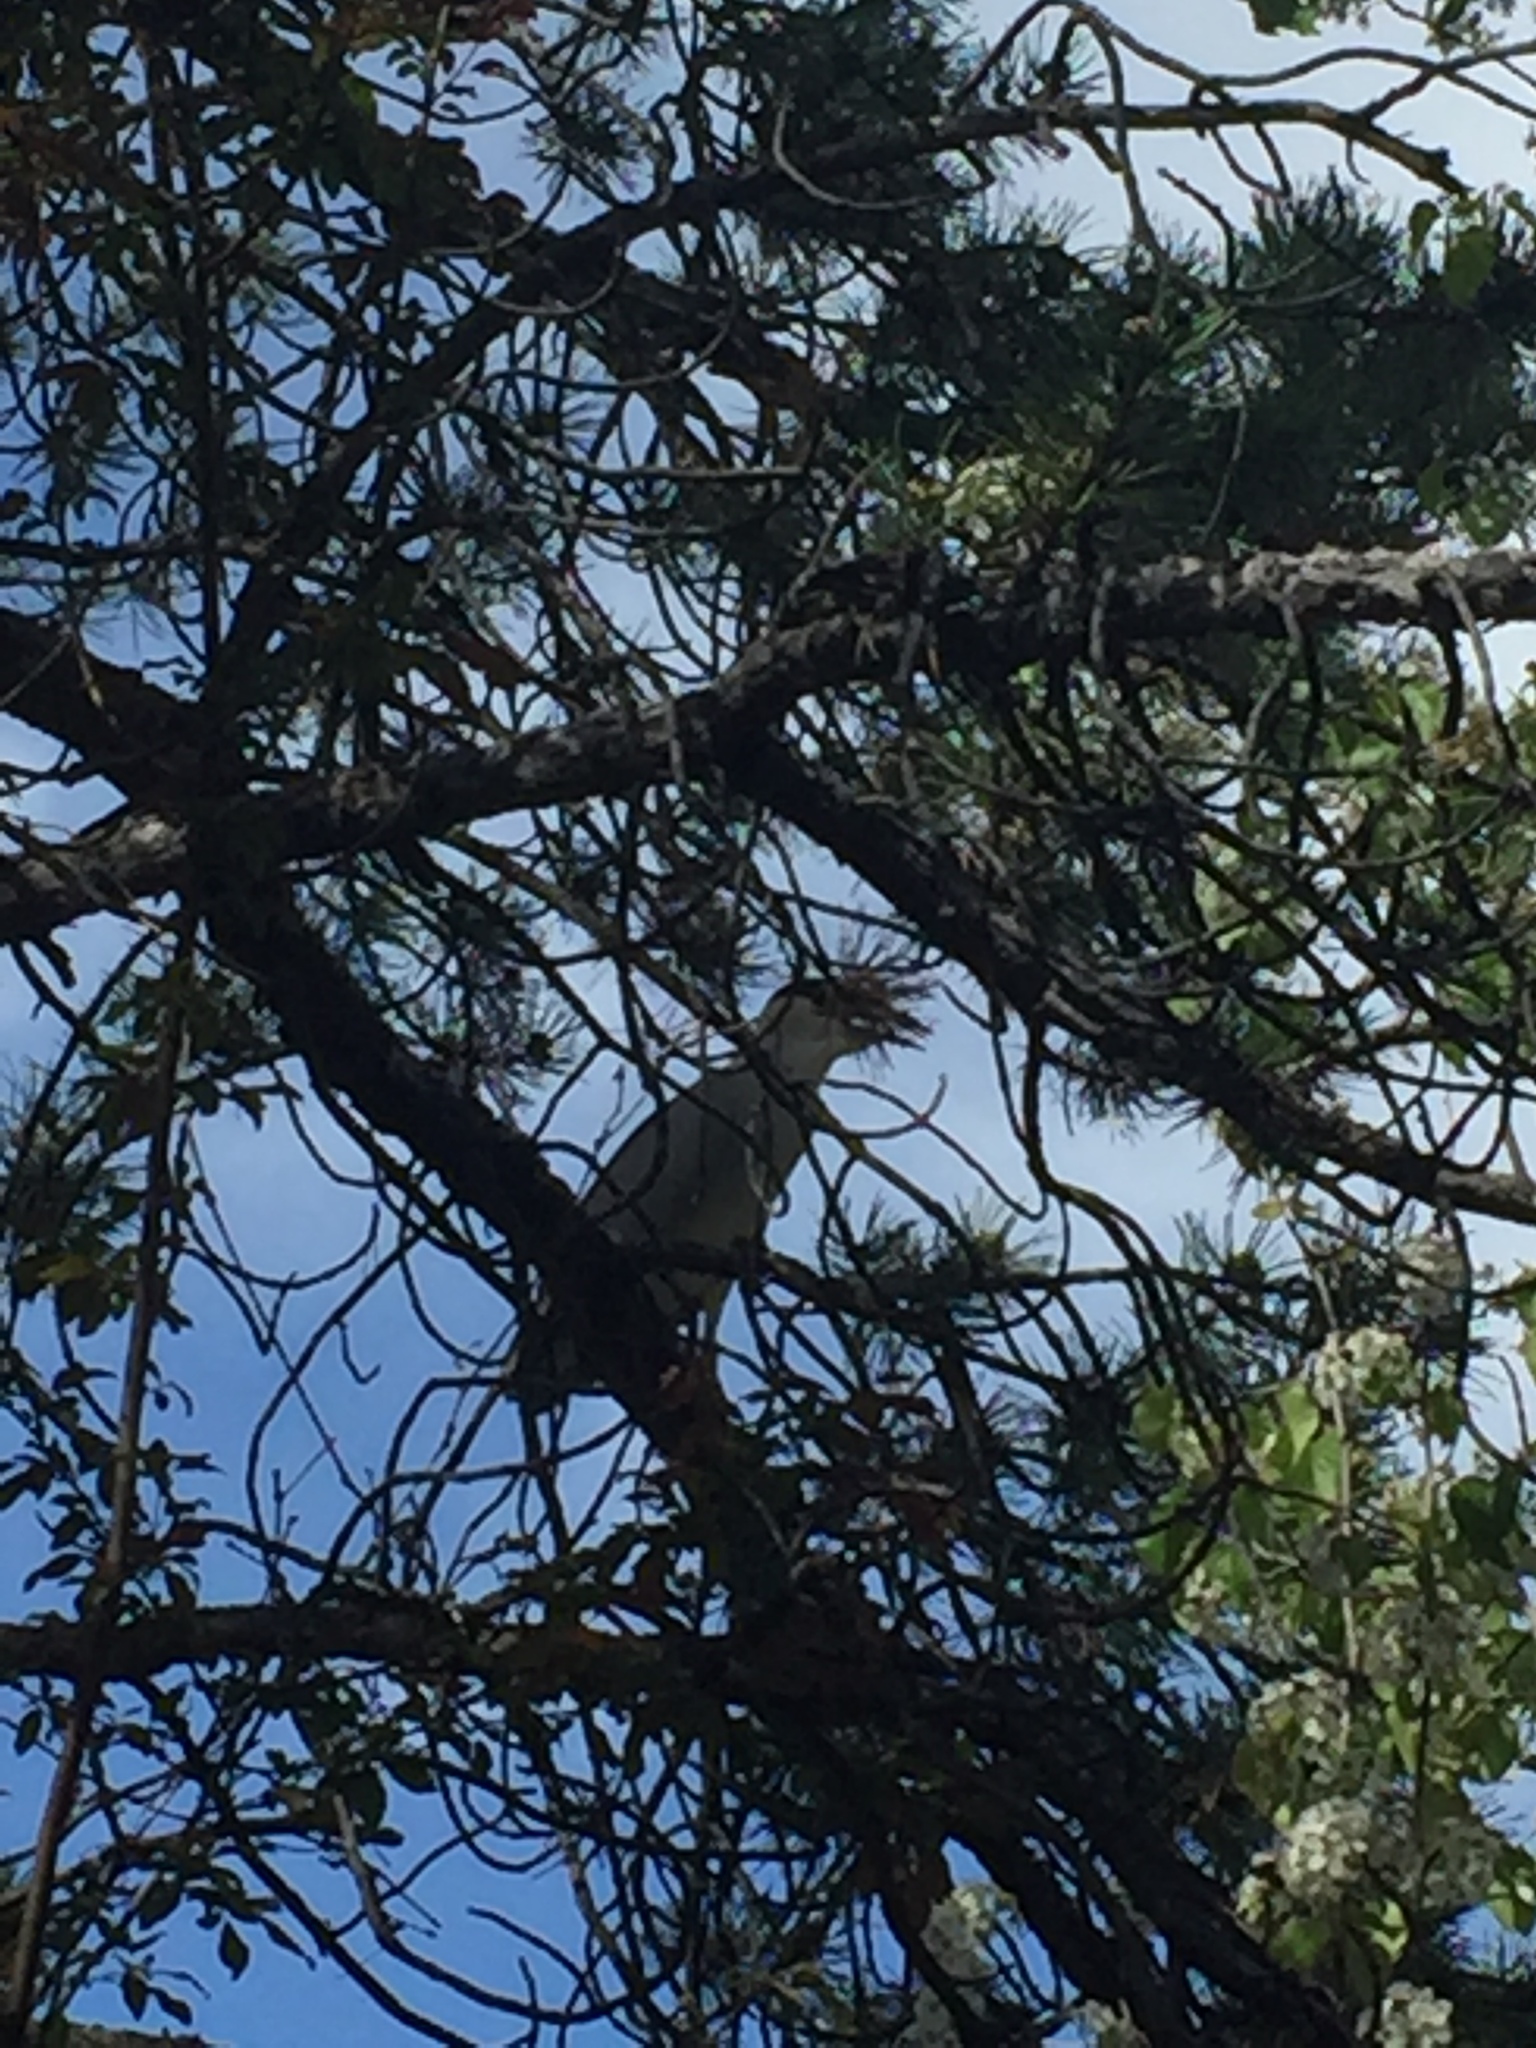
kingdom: Animalia
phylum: Chordata
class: Aves
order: Pelecaniformes
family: Ardeidae
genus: Nycticorax
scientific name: Nycticorax nycticorax
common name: Black-crowned night heron
